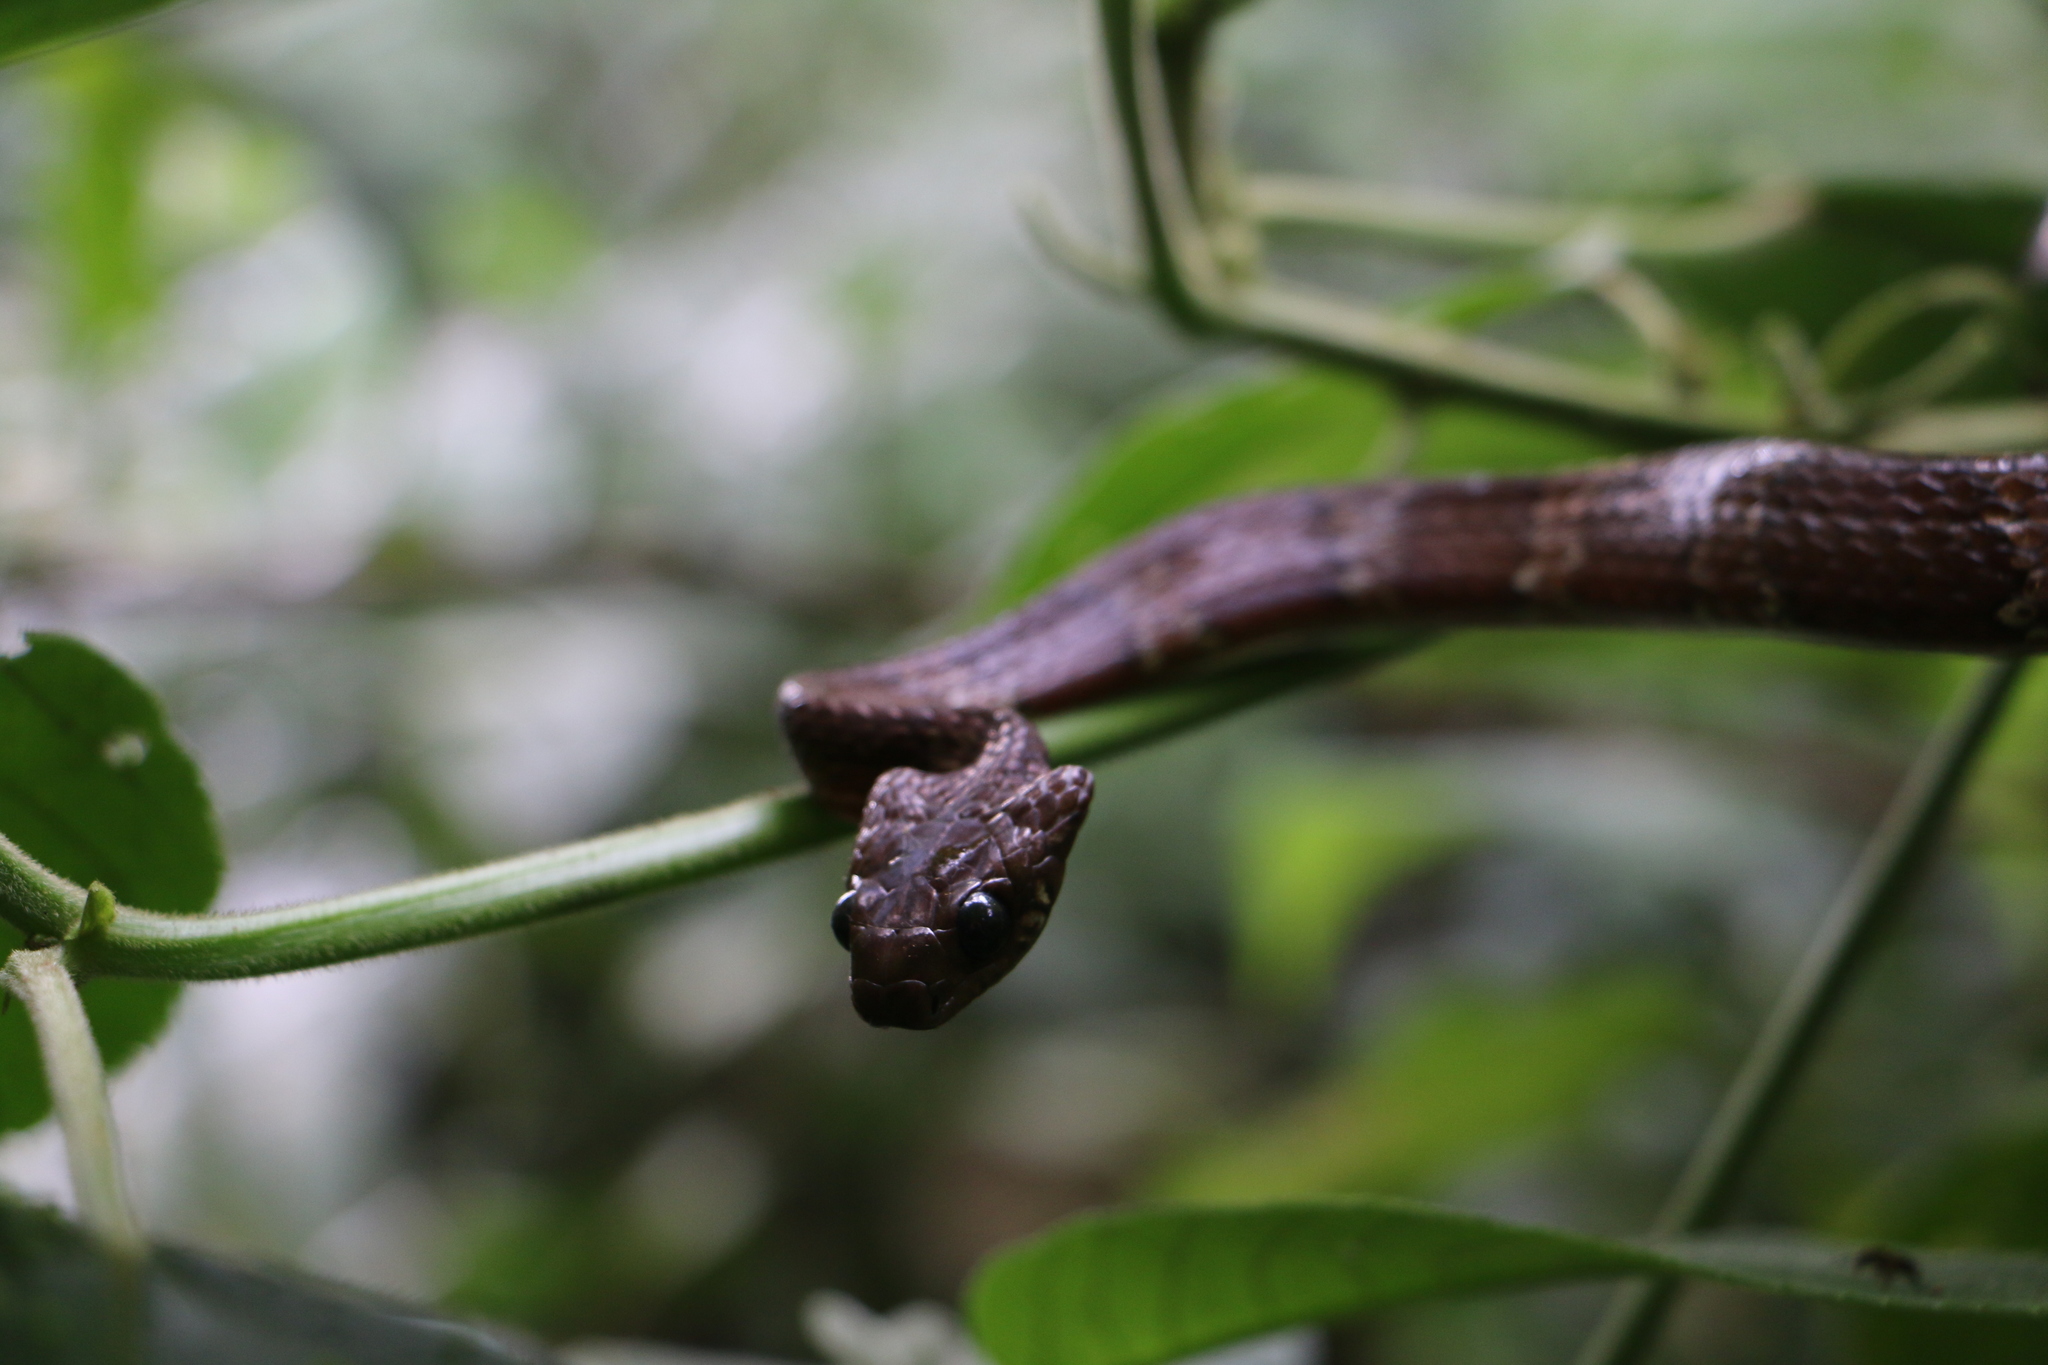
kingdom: Animalia
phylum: Chordata
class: Squamata
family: Colubridae
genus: Dipsas
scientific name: Dipsas sanctijoannis
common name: Tropical snail-eater
